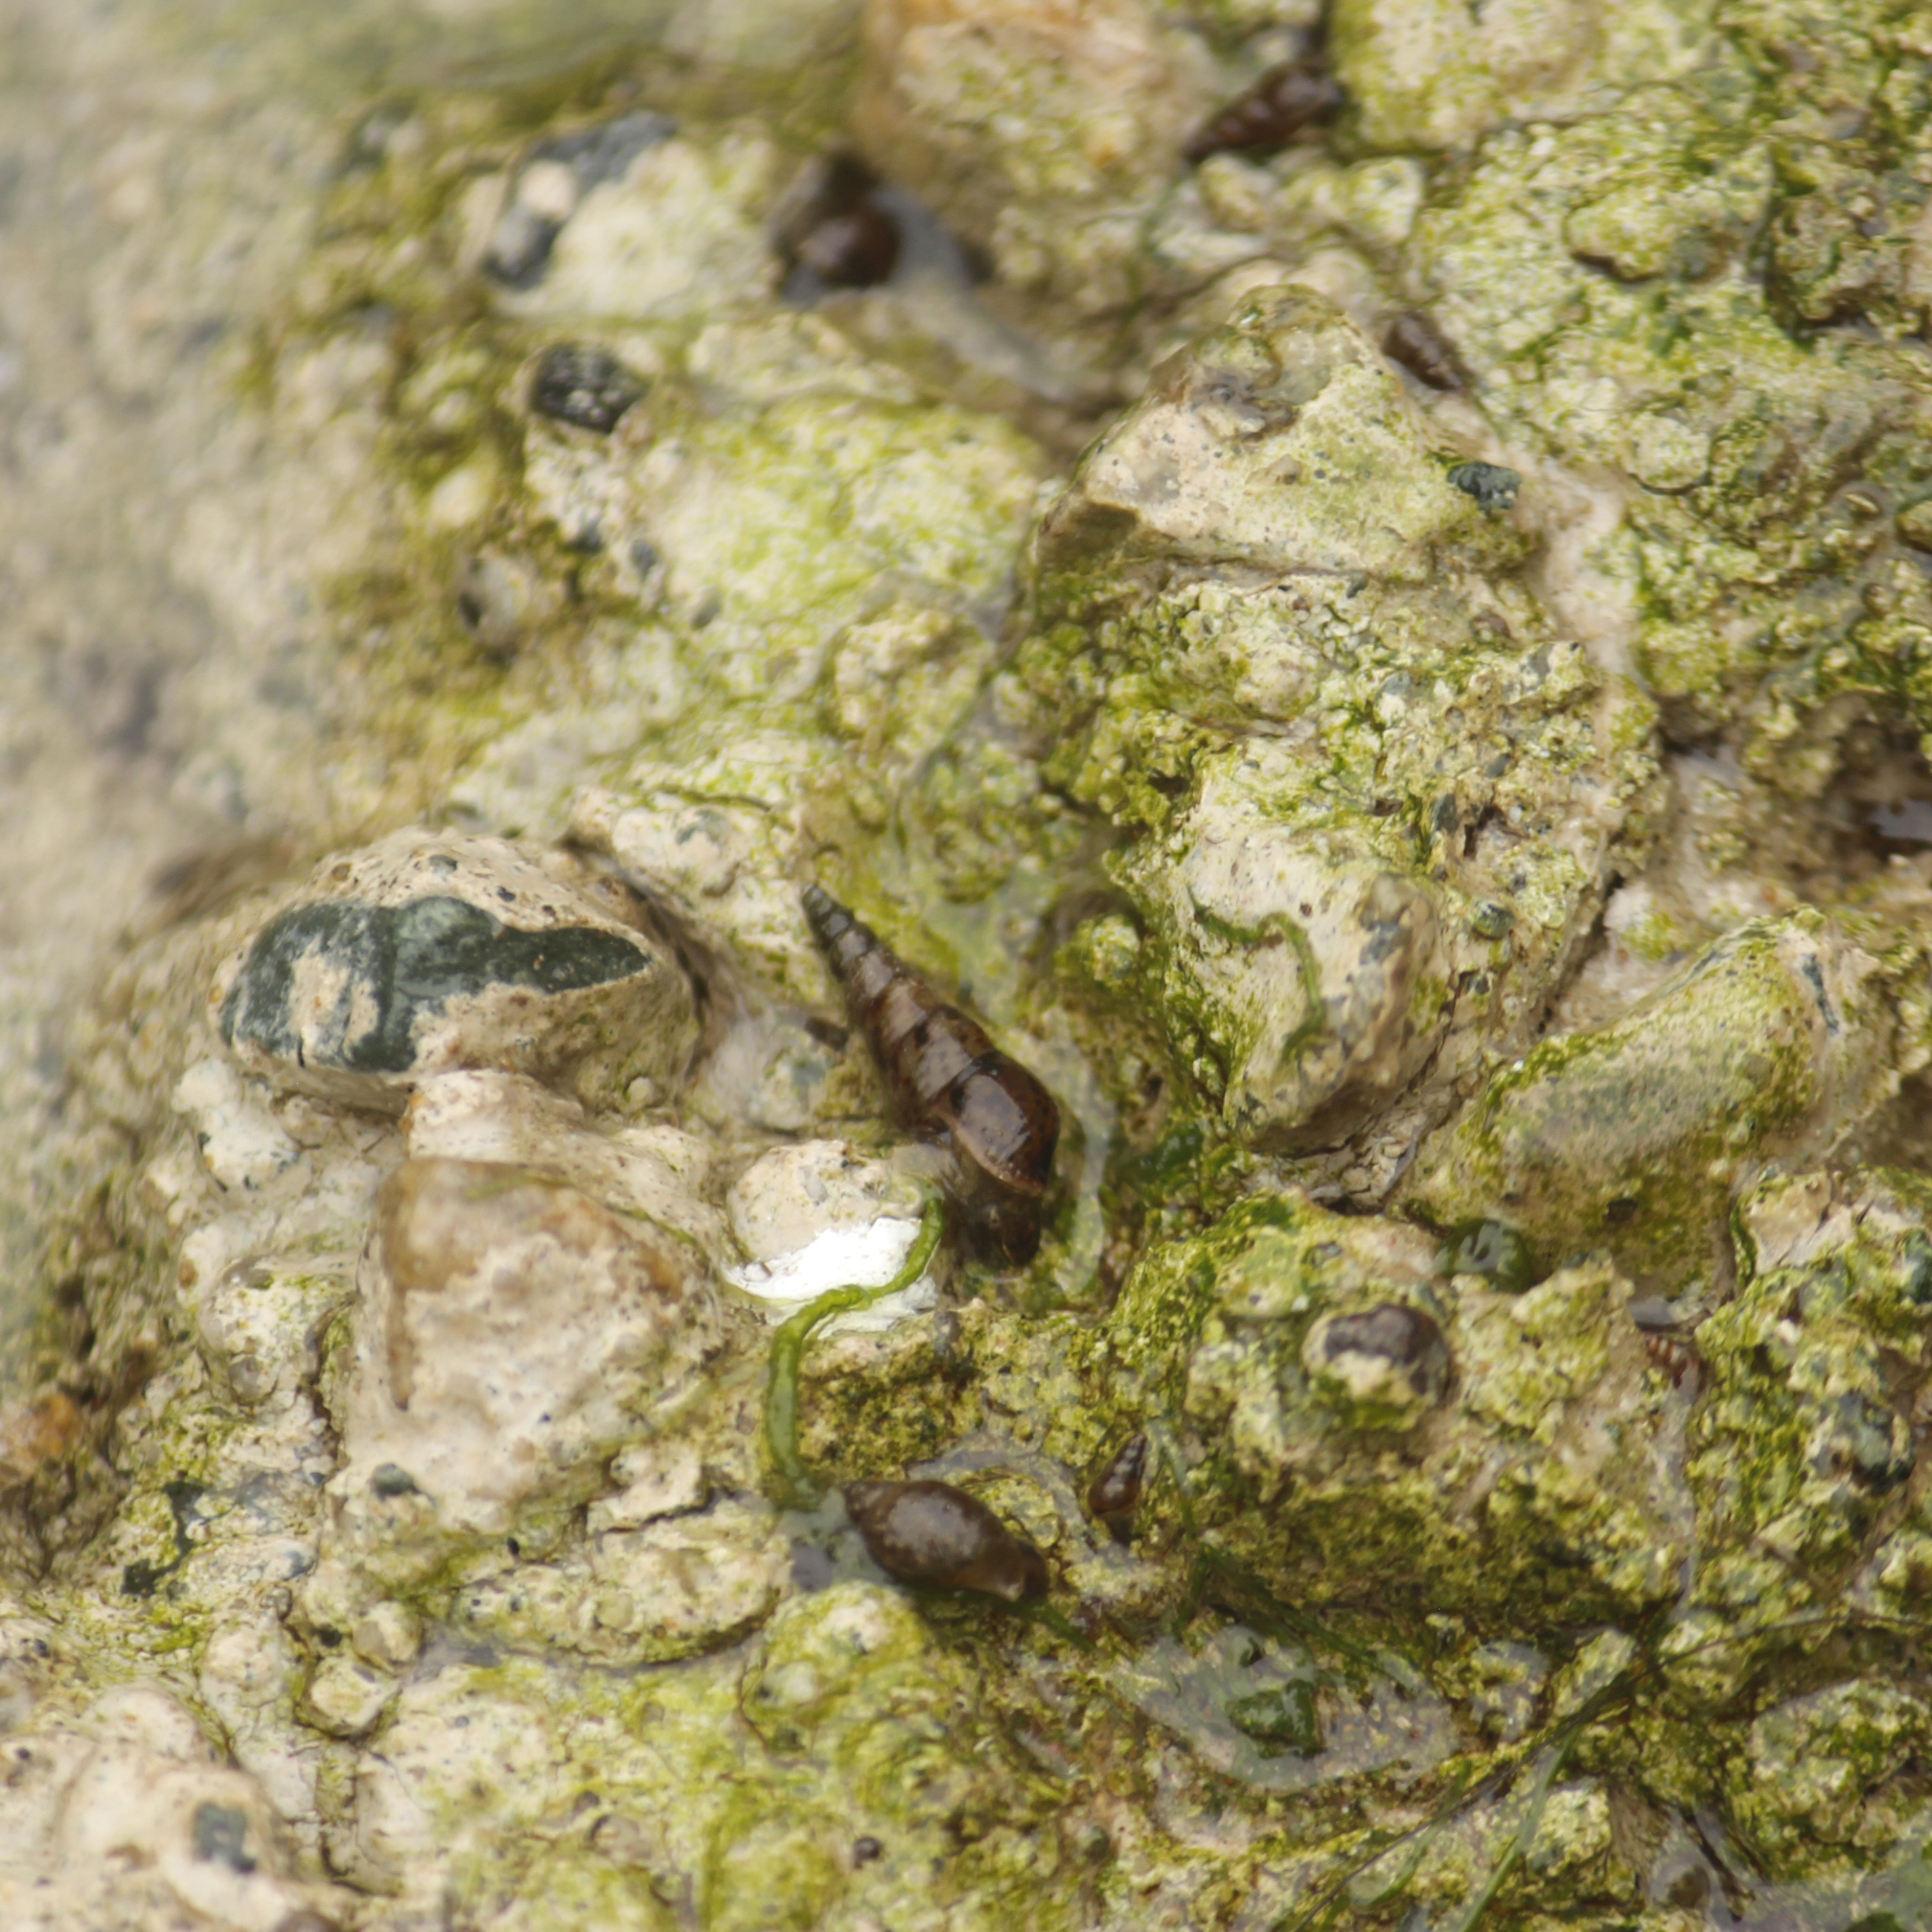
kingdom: Animalia
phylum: Mollusca
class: Gastropoda
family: Thiaridae
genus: Melanoides
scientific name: Melanoides tuberculata
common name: Red-rim melania
